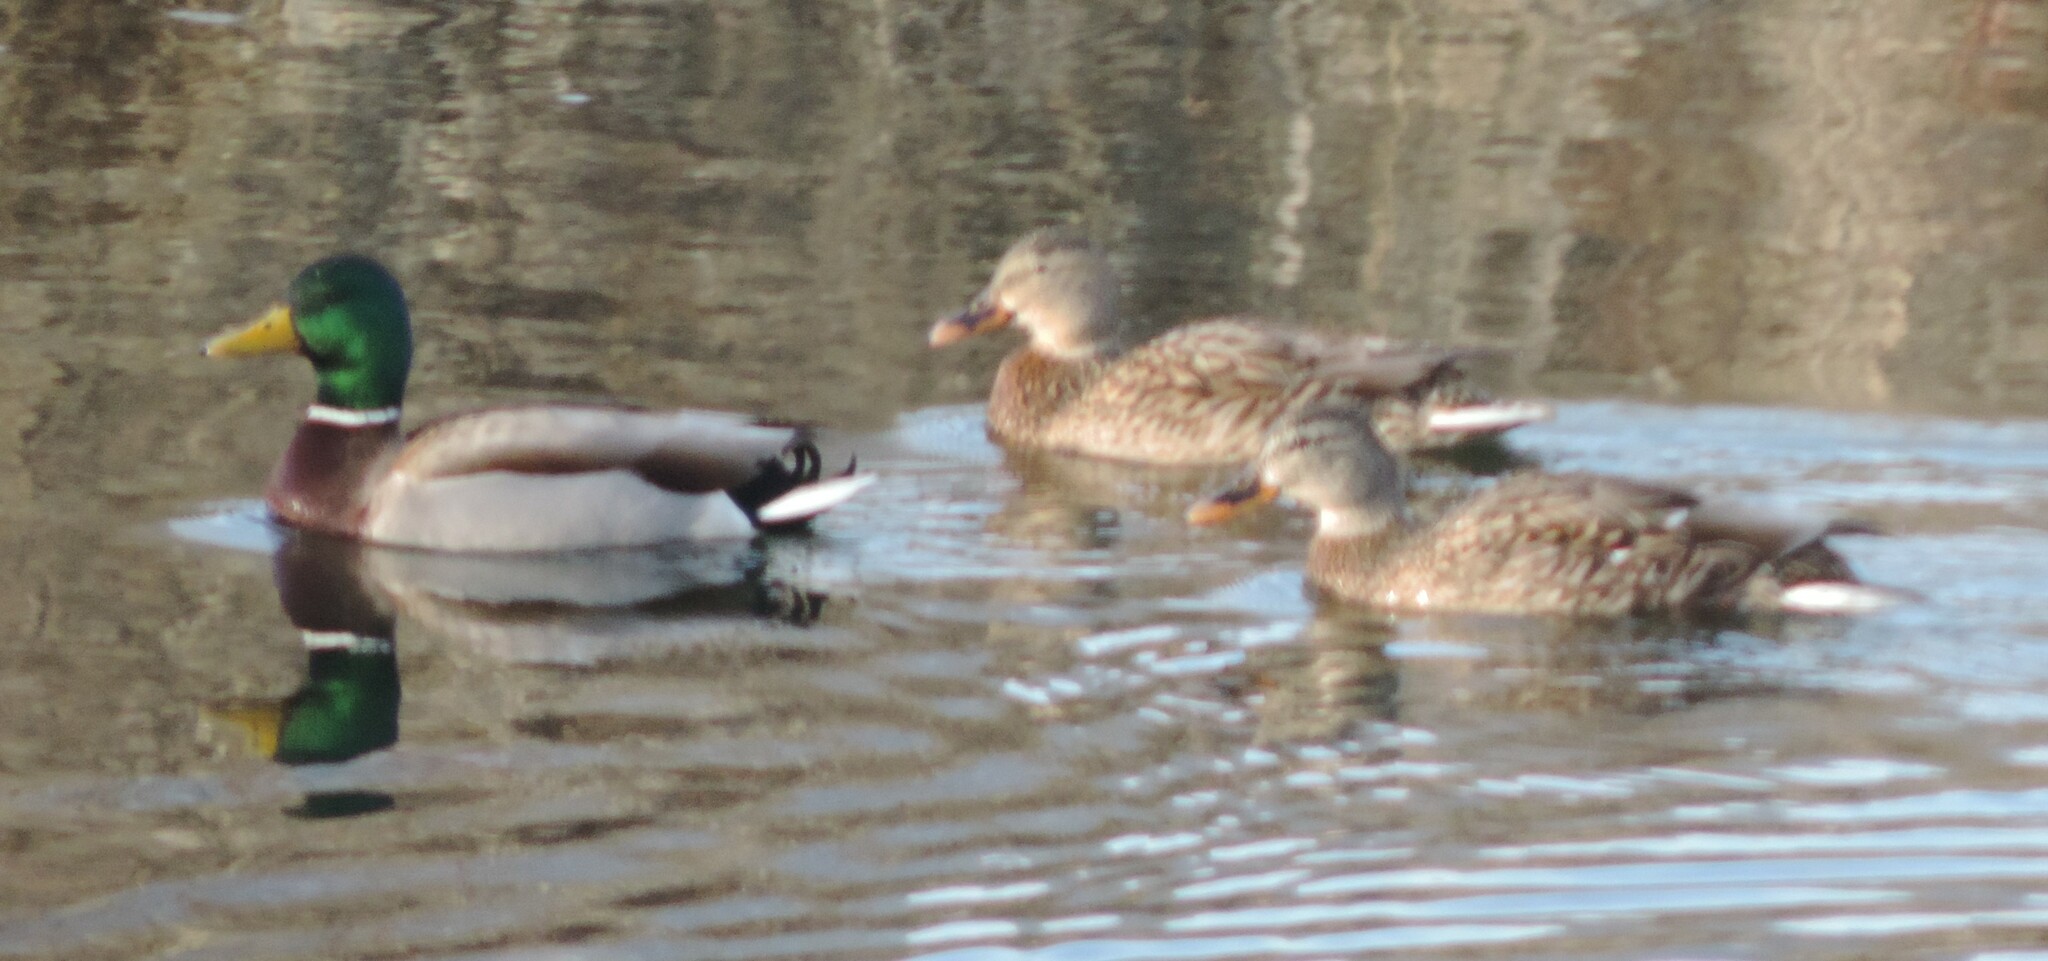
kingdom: Animalia
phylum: Chordata
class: Aves
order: Anseriformes
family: Anatidae
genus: Anas
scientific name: Anas platyrhynchos
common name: Mallard
